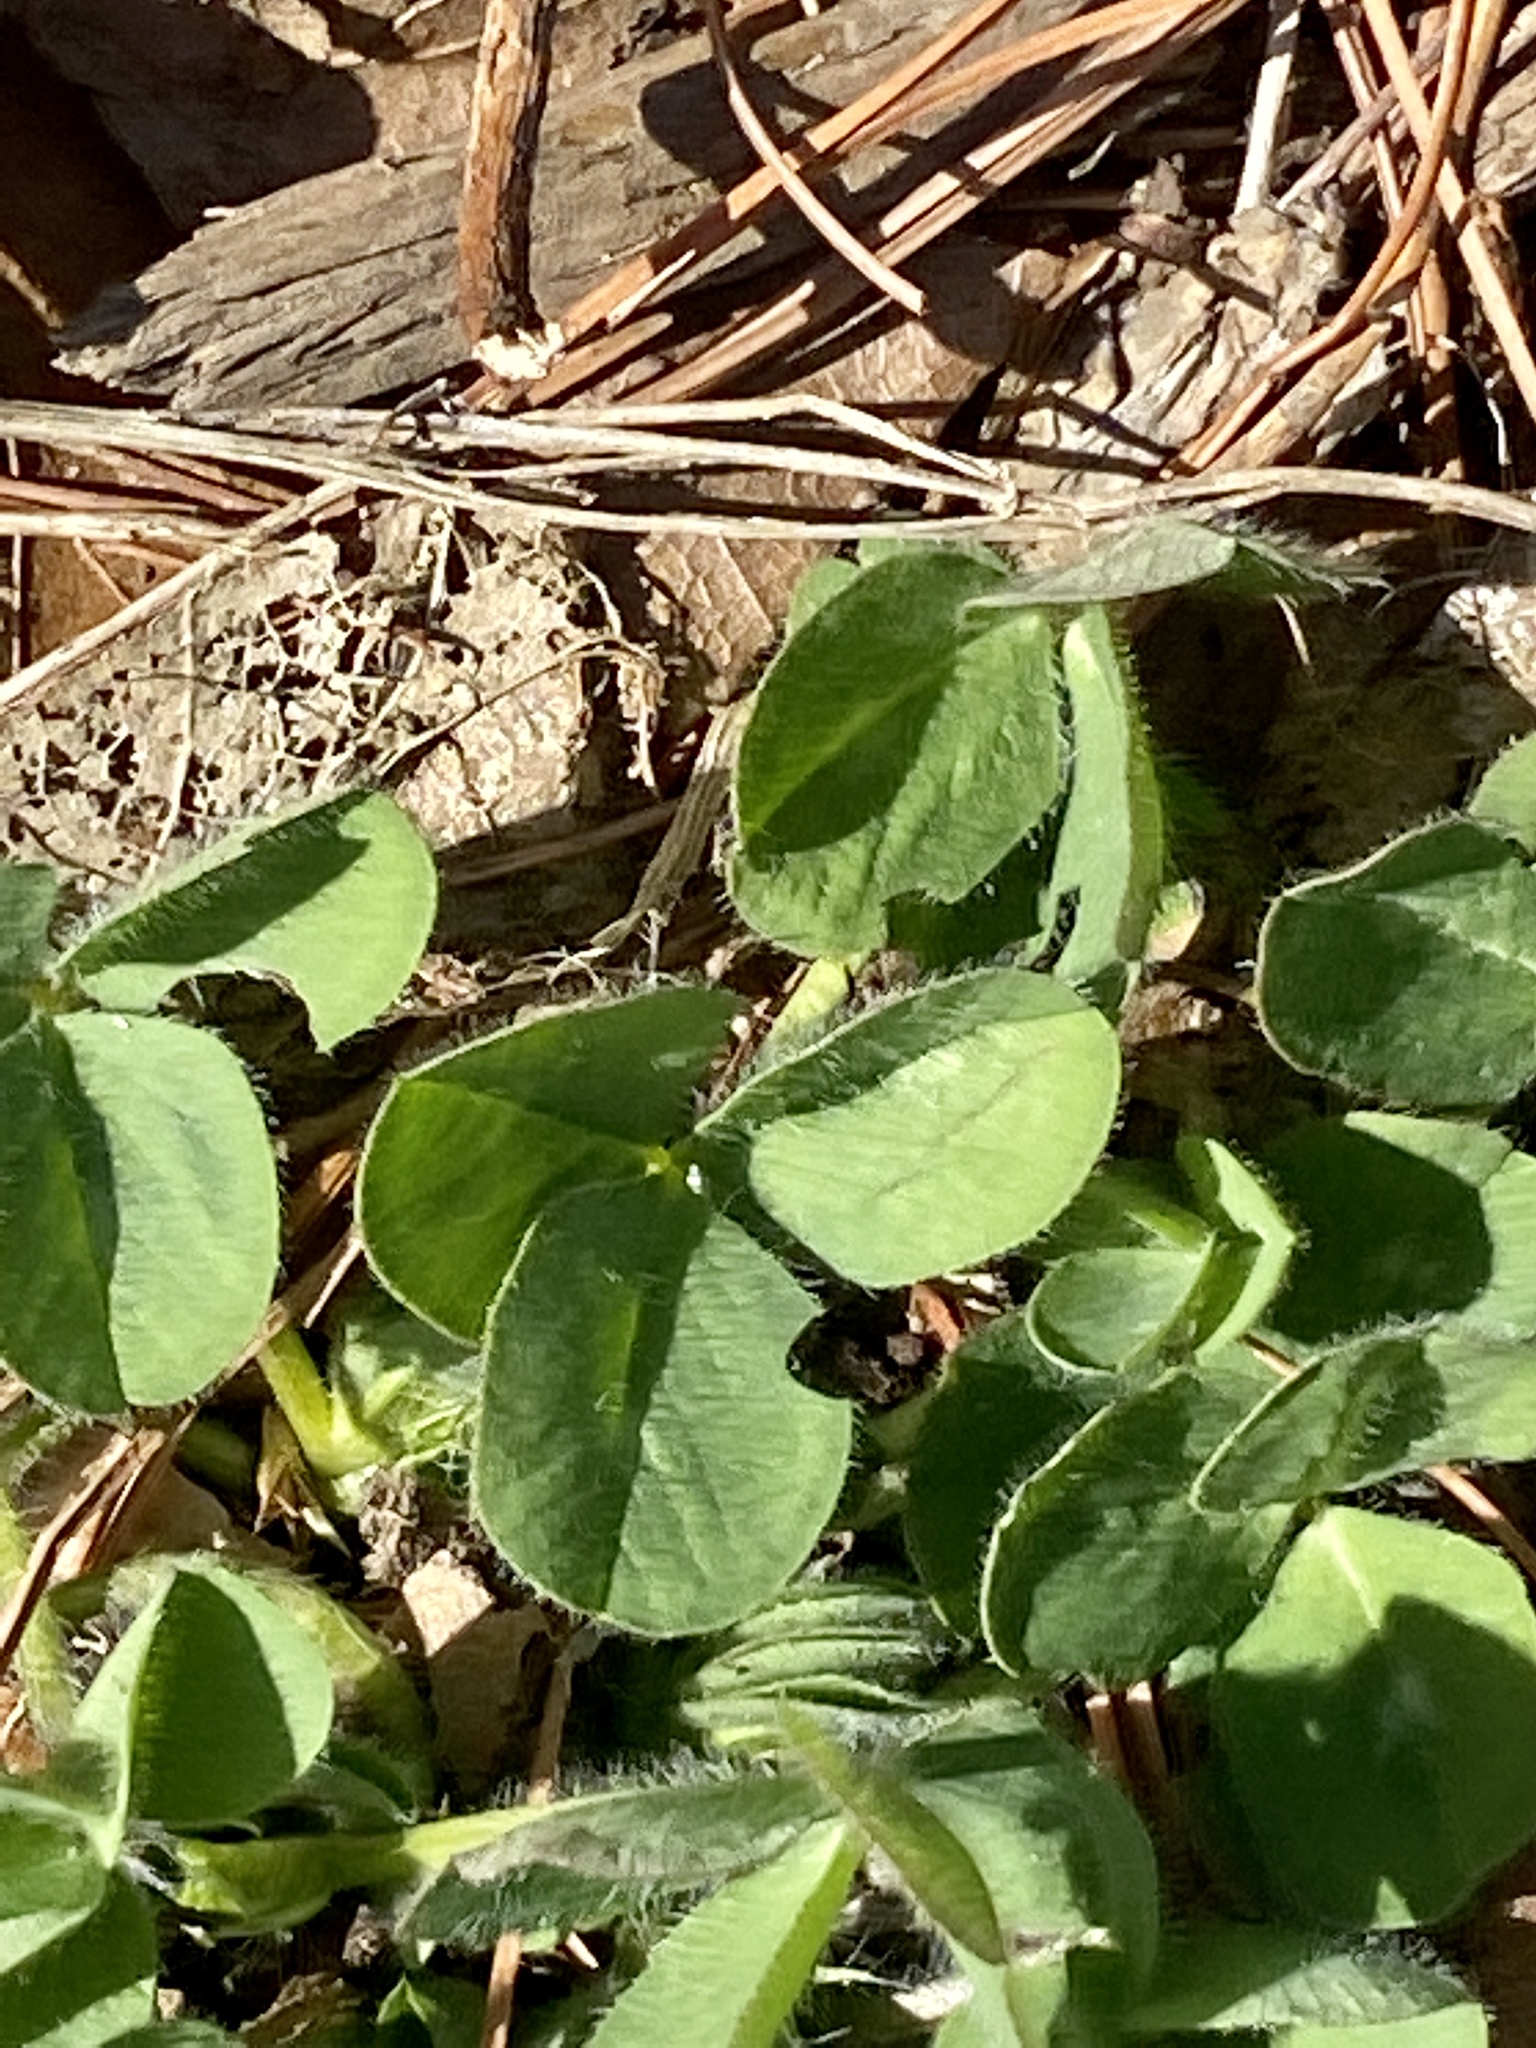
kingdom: Plantae
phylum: Tracheophyta
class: Magnoliopsida
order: Fabales
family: Fabaceae
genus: Trifolium
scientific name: Trifolium pratense
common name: Red clover
